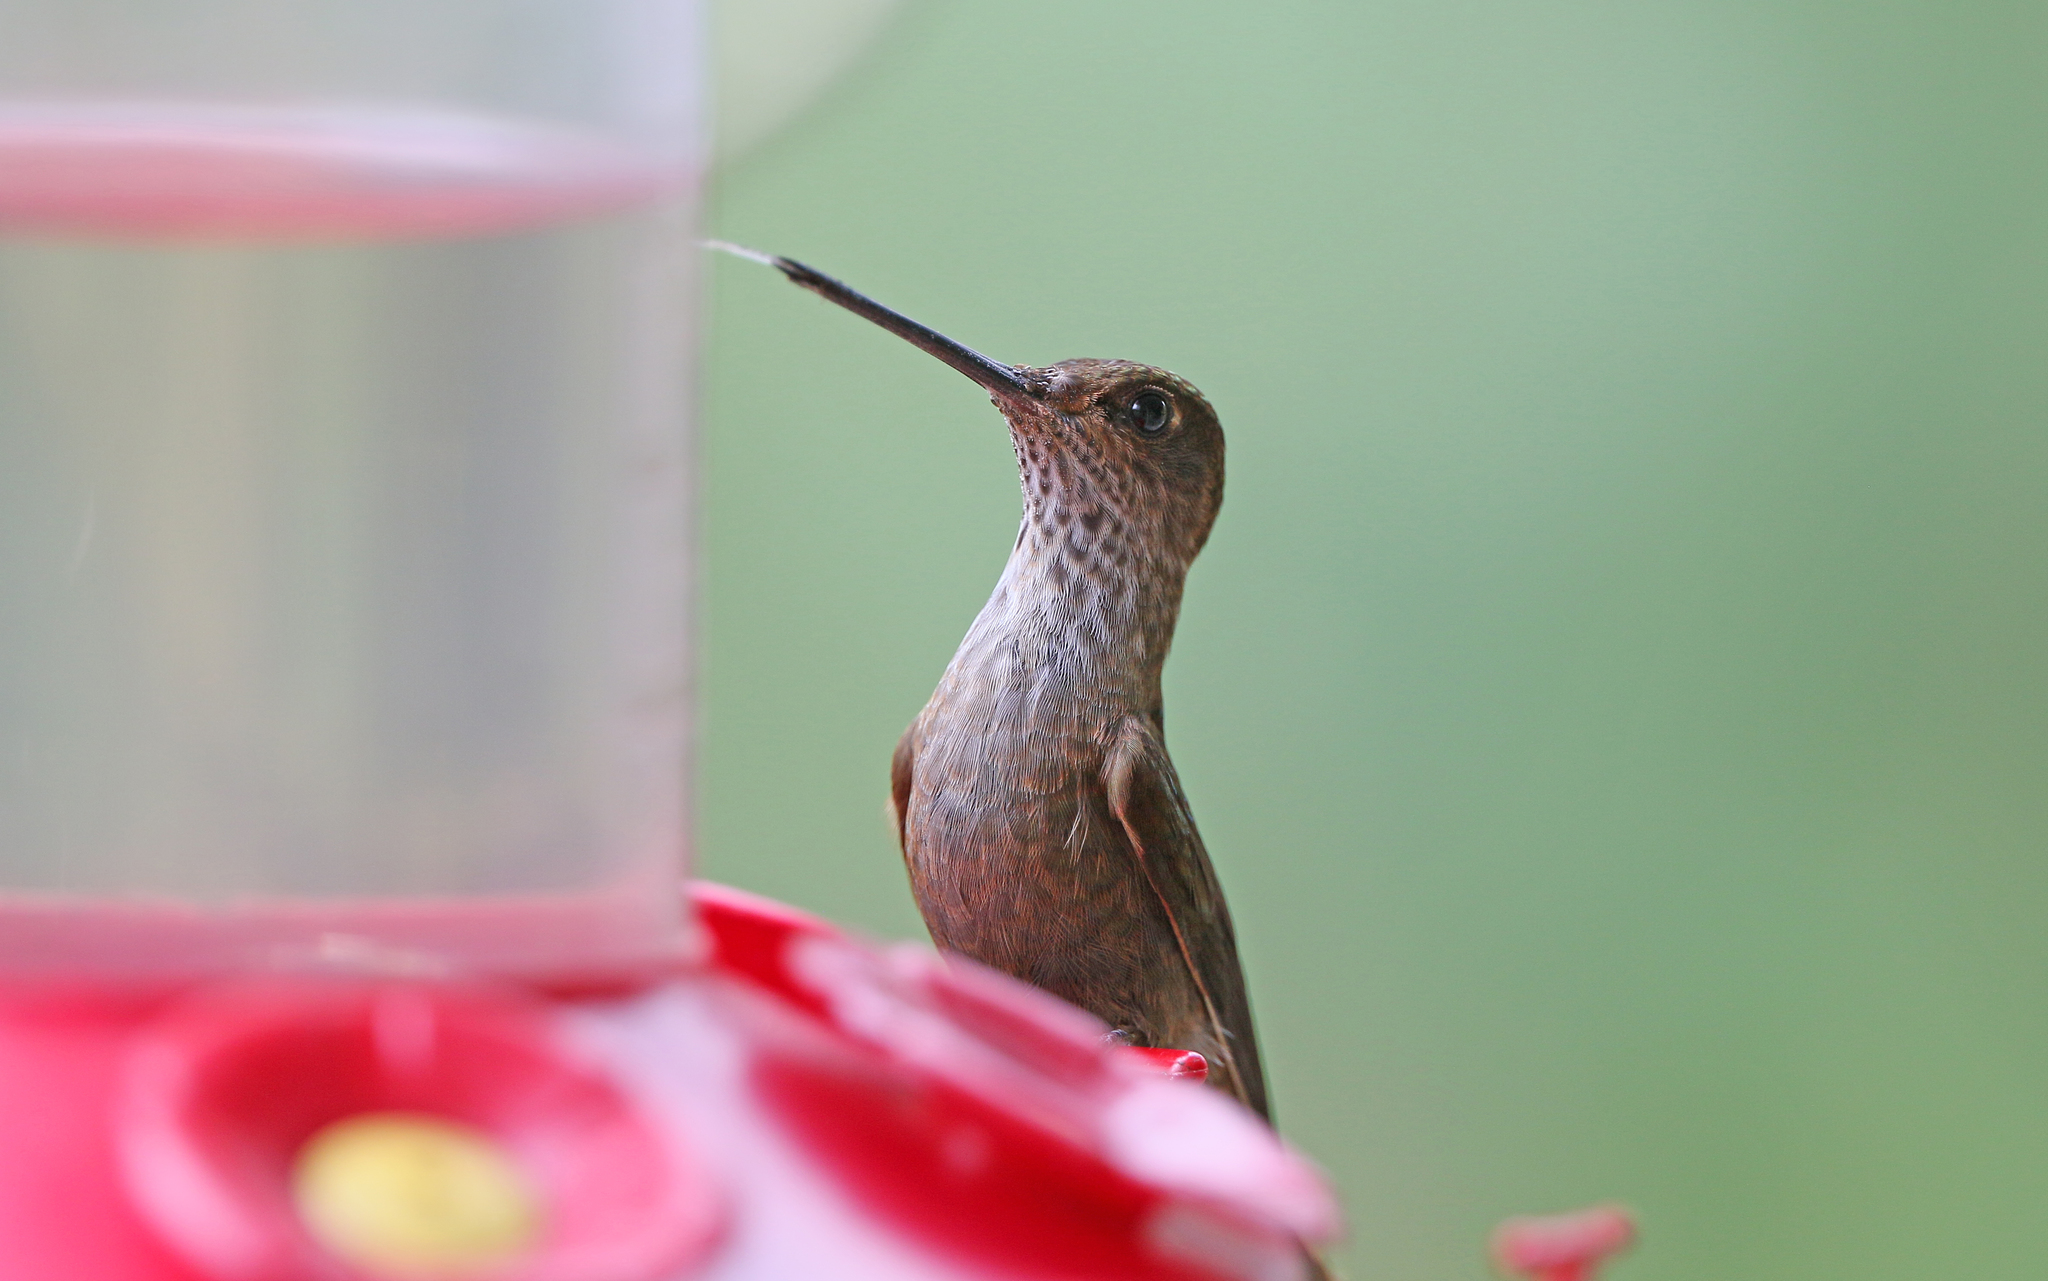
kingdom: Animalia
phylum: Chordata
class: Aves
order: Apodiformes
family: Trochilidae
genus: Coeligena
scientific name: Coeligena coeligena
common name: Bronzy inca
